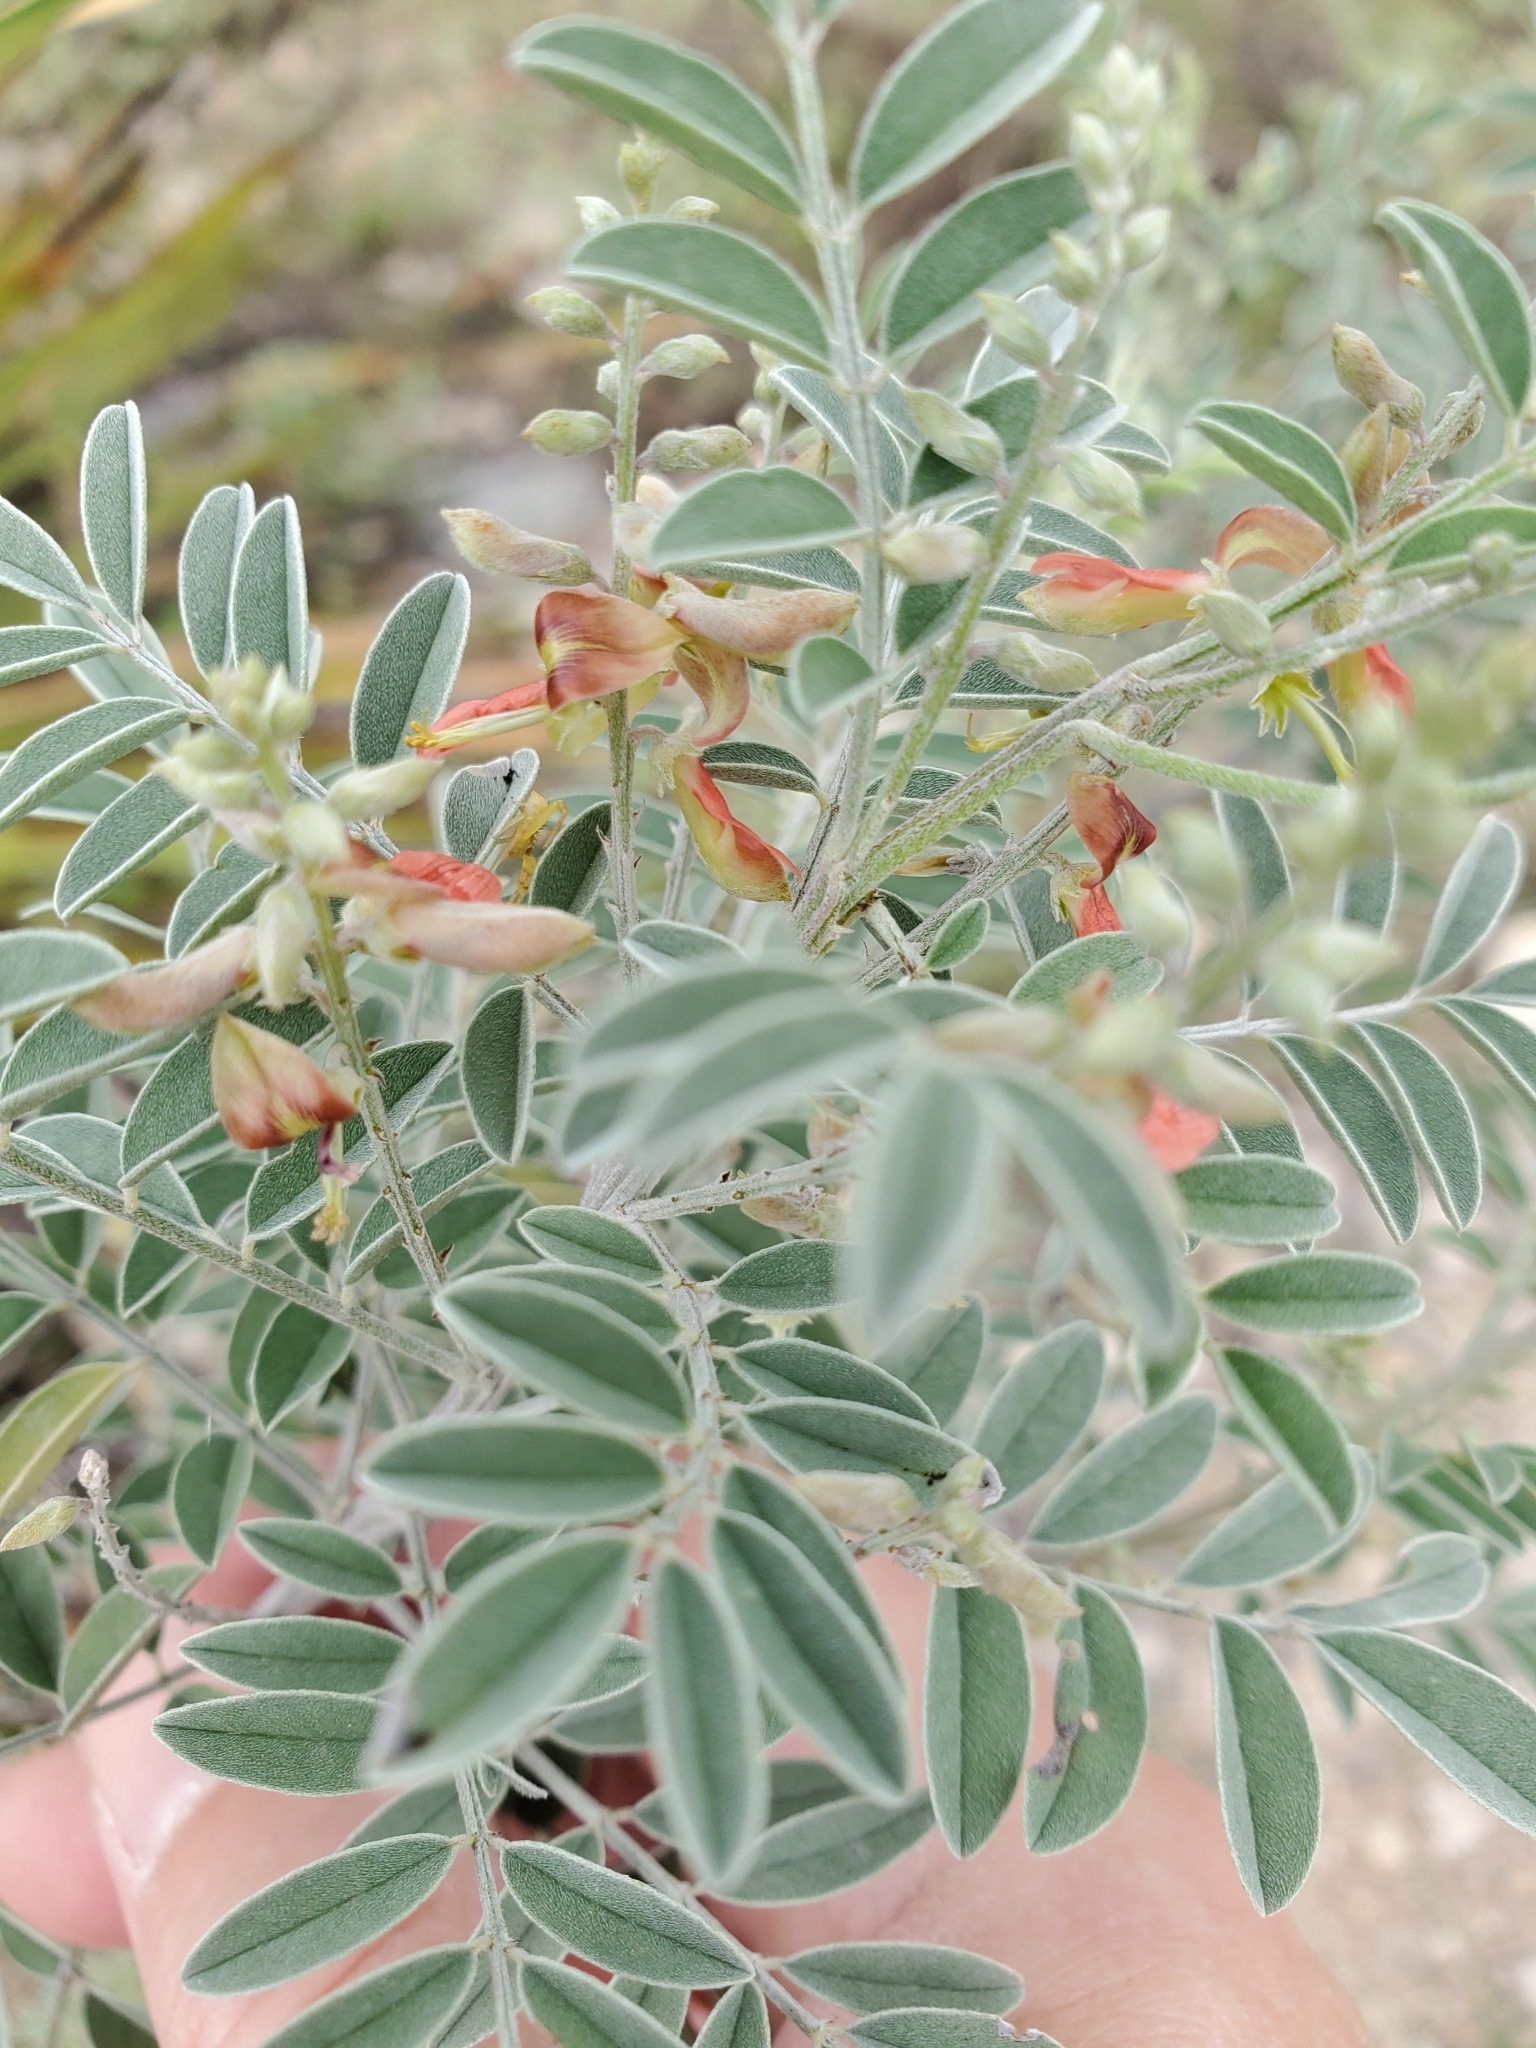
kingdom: Plantae
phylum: Tracheophyta
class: Magnoliopsida
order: Fabales
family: Fabaceae
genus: Indigofera
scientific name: Indigofera lindheimeriana
